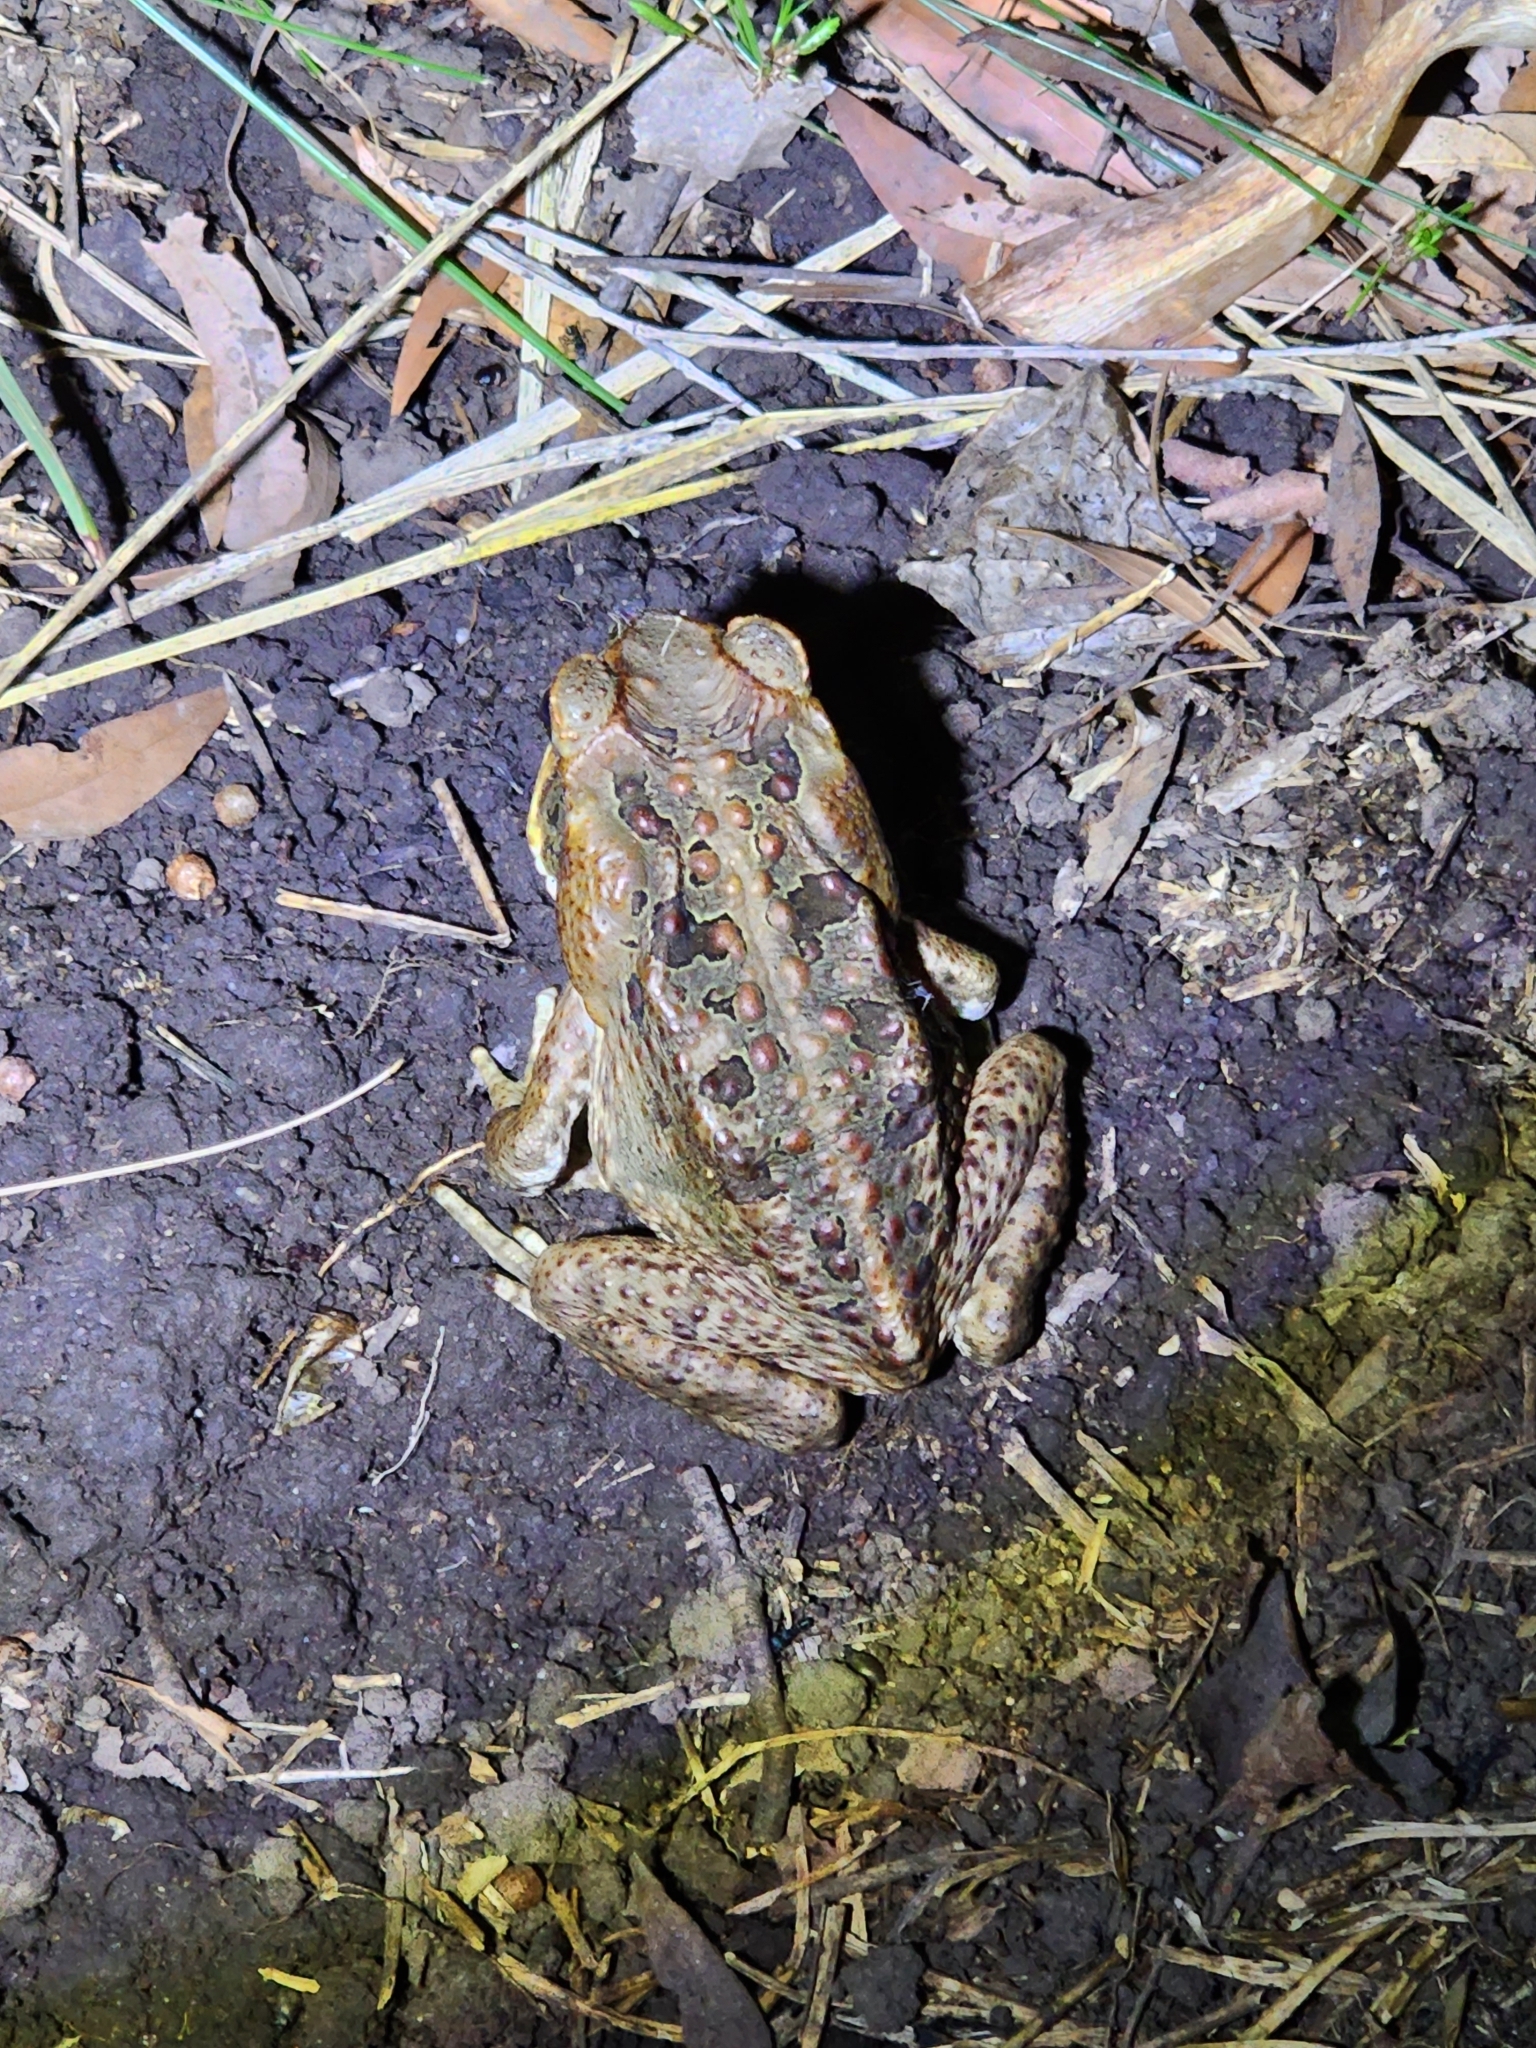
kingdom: Animalia
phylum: Chordata
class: Amphibia
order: Anura
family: Bufonidae
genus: Rhinella
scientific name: Rhinella marina
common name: Cane toad
